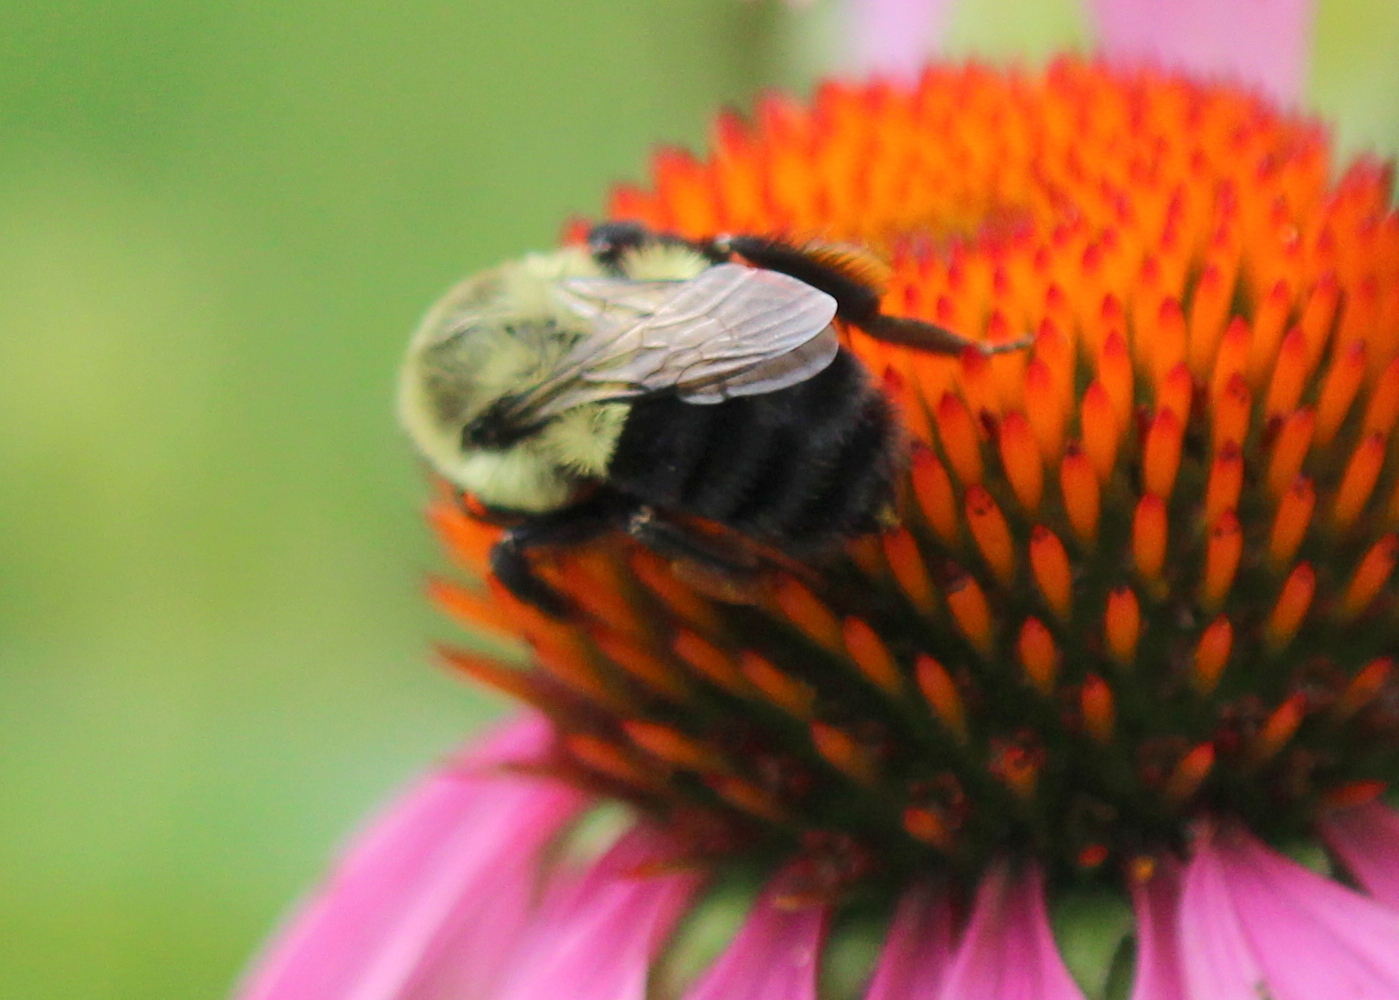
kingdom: Animalia
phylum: Arthropoda
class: Insecta
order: Hymenoptera
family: Apidae
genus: Bombus
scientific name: Bombus impatiens
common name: Common eastern bumble bee
